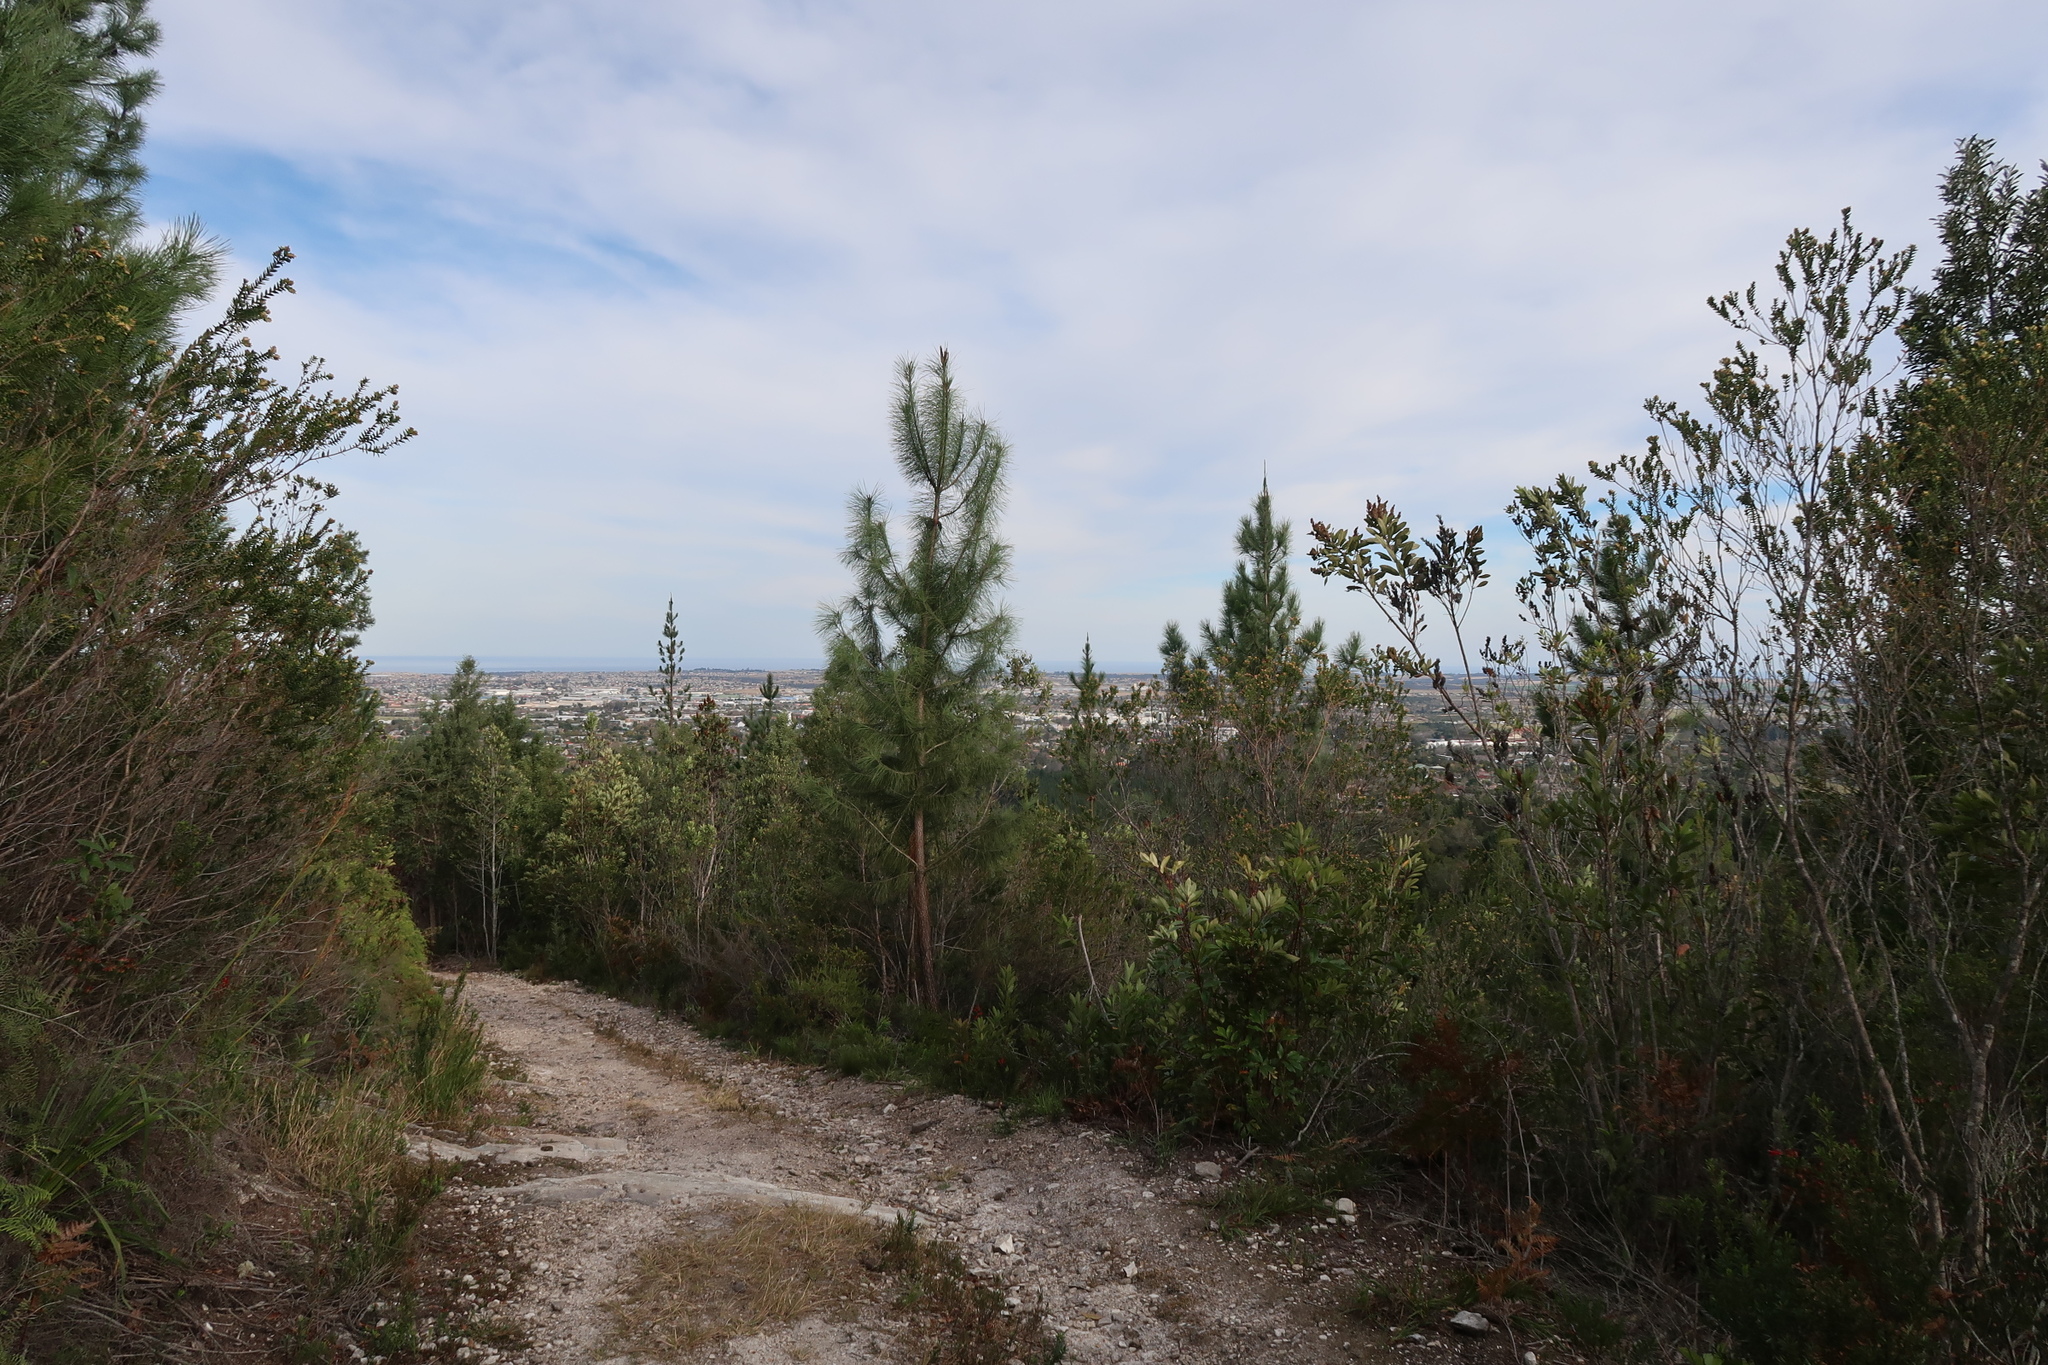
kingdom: Plantae
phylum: Tracheophyta
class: Pinopsida
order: Pinales
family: Pinaceae
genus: Pinus
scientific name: Pinus pinaster
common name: Maritime pine
